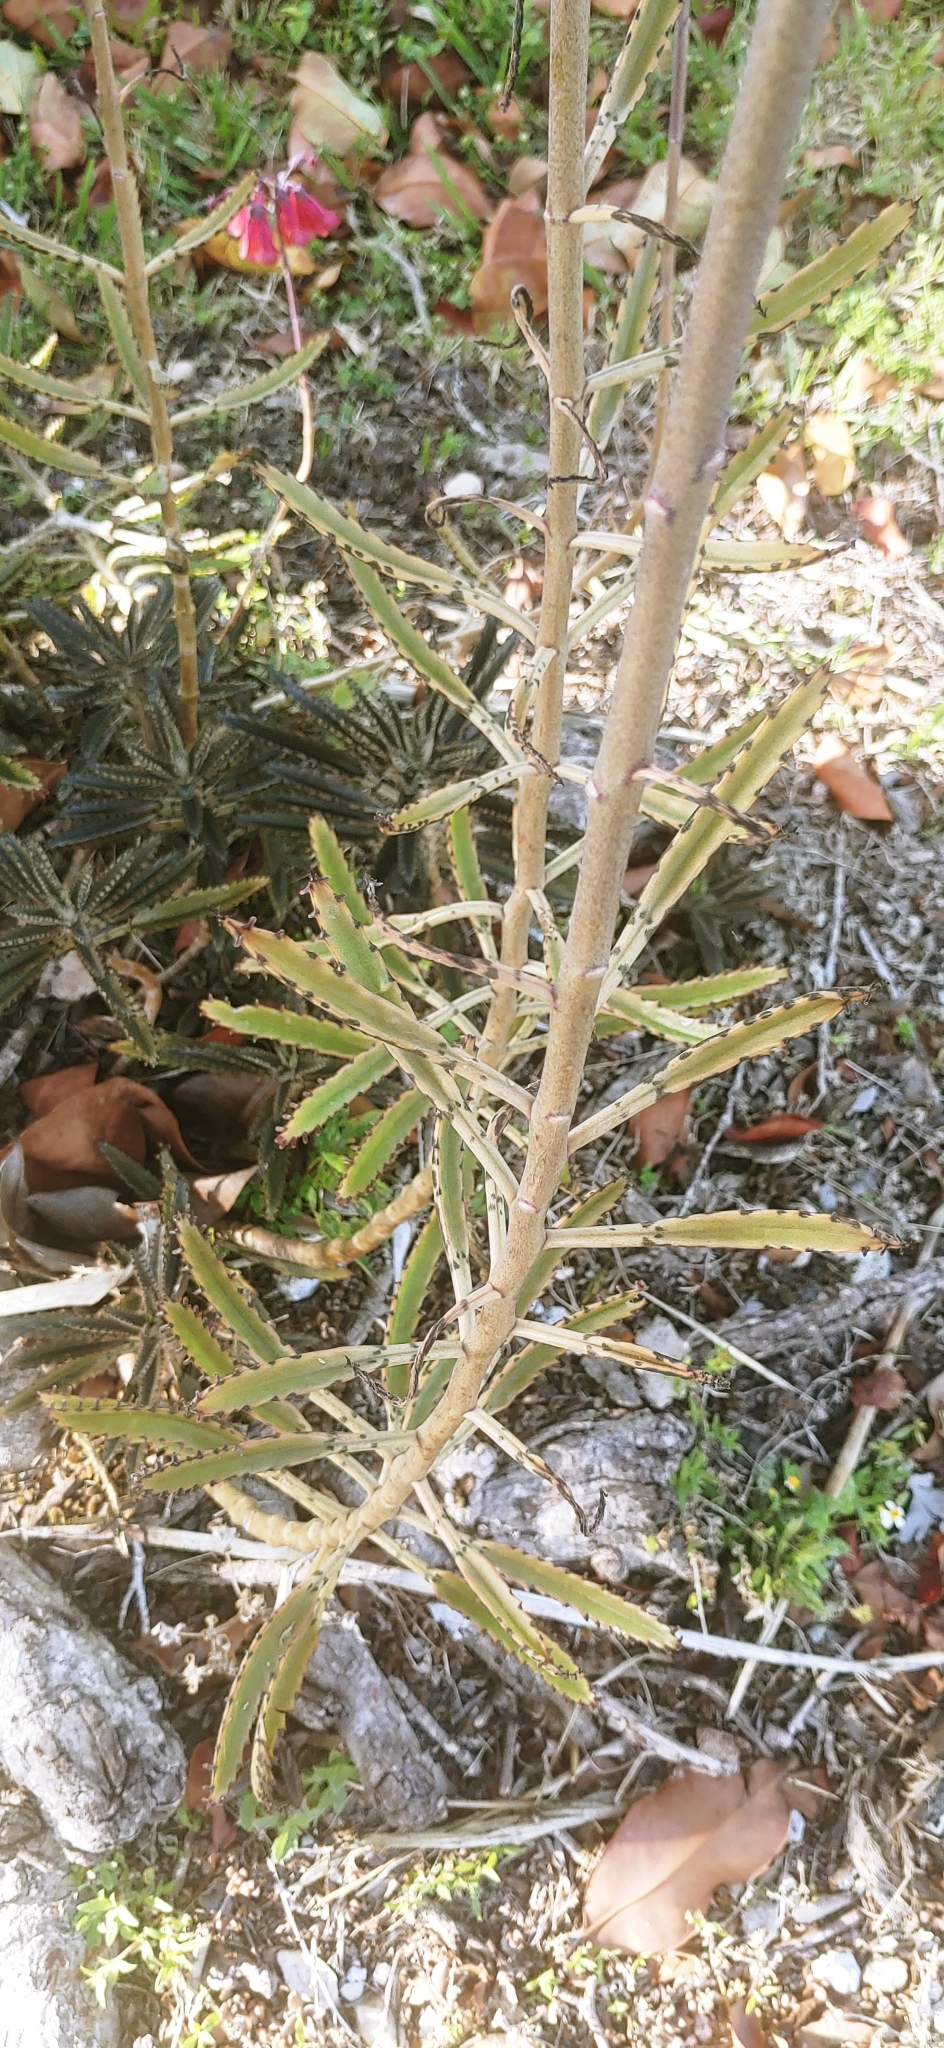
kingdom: Plantae
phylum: Tracheophyta
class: Magnoliopsida
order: Saxifragales
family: Crassulaceae
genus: Kalanchoe
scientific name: Kalanchoe delagoensis
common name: Chandelier plant
